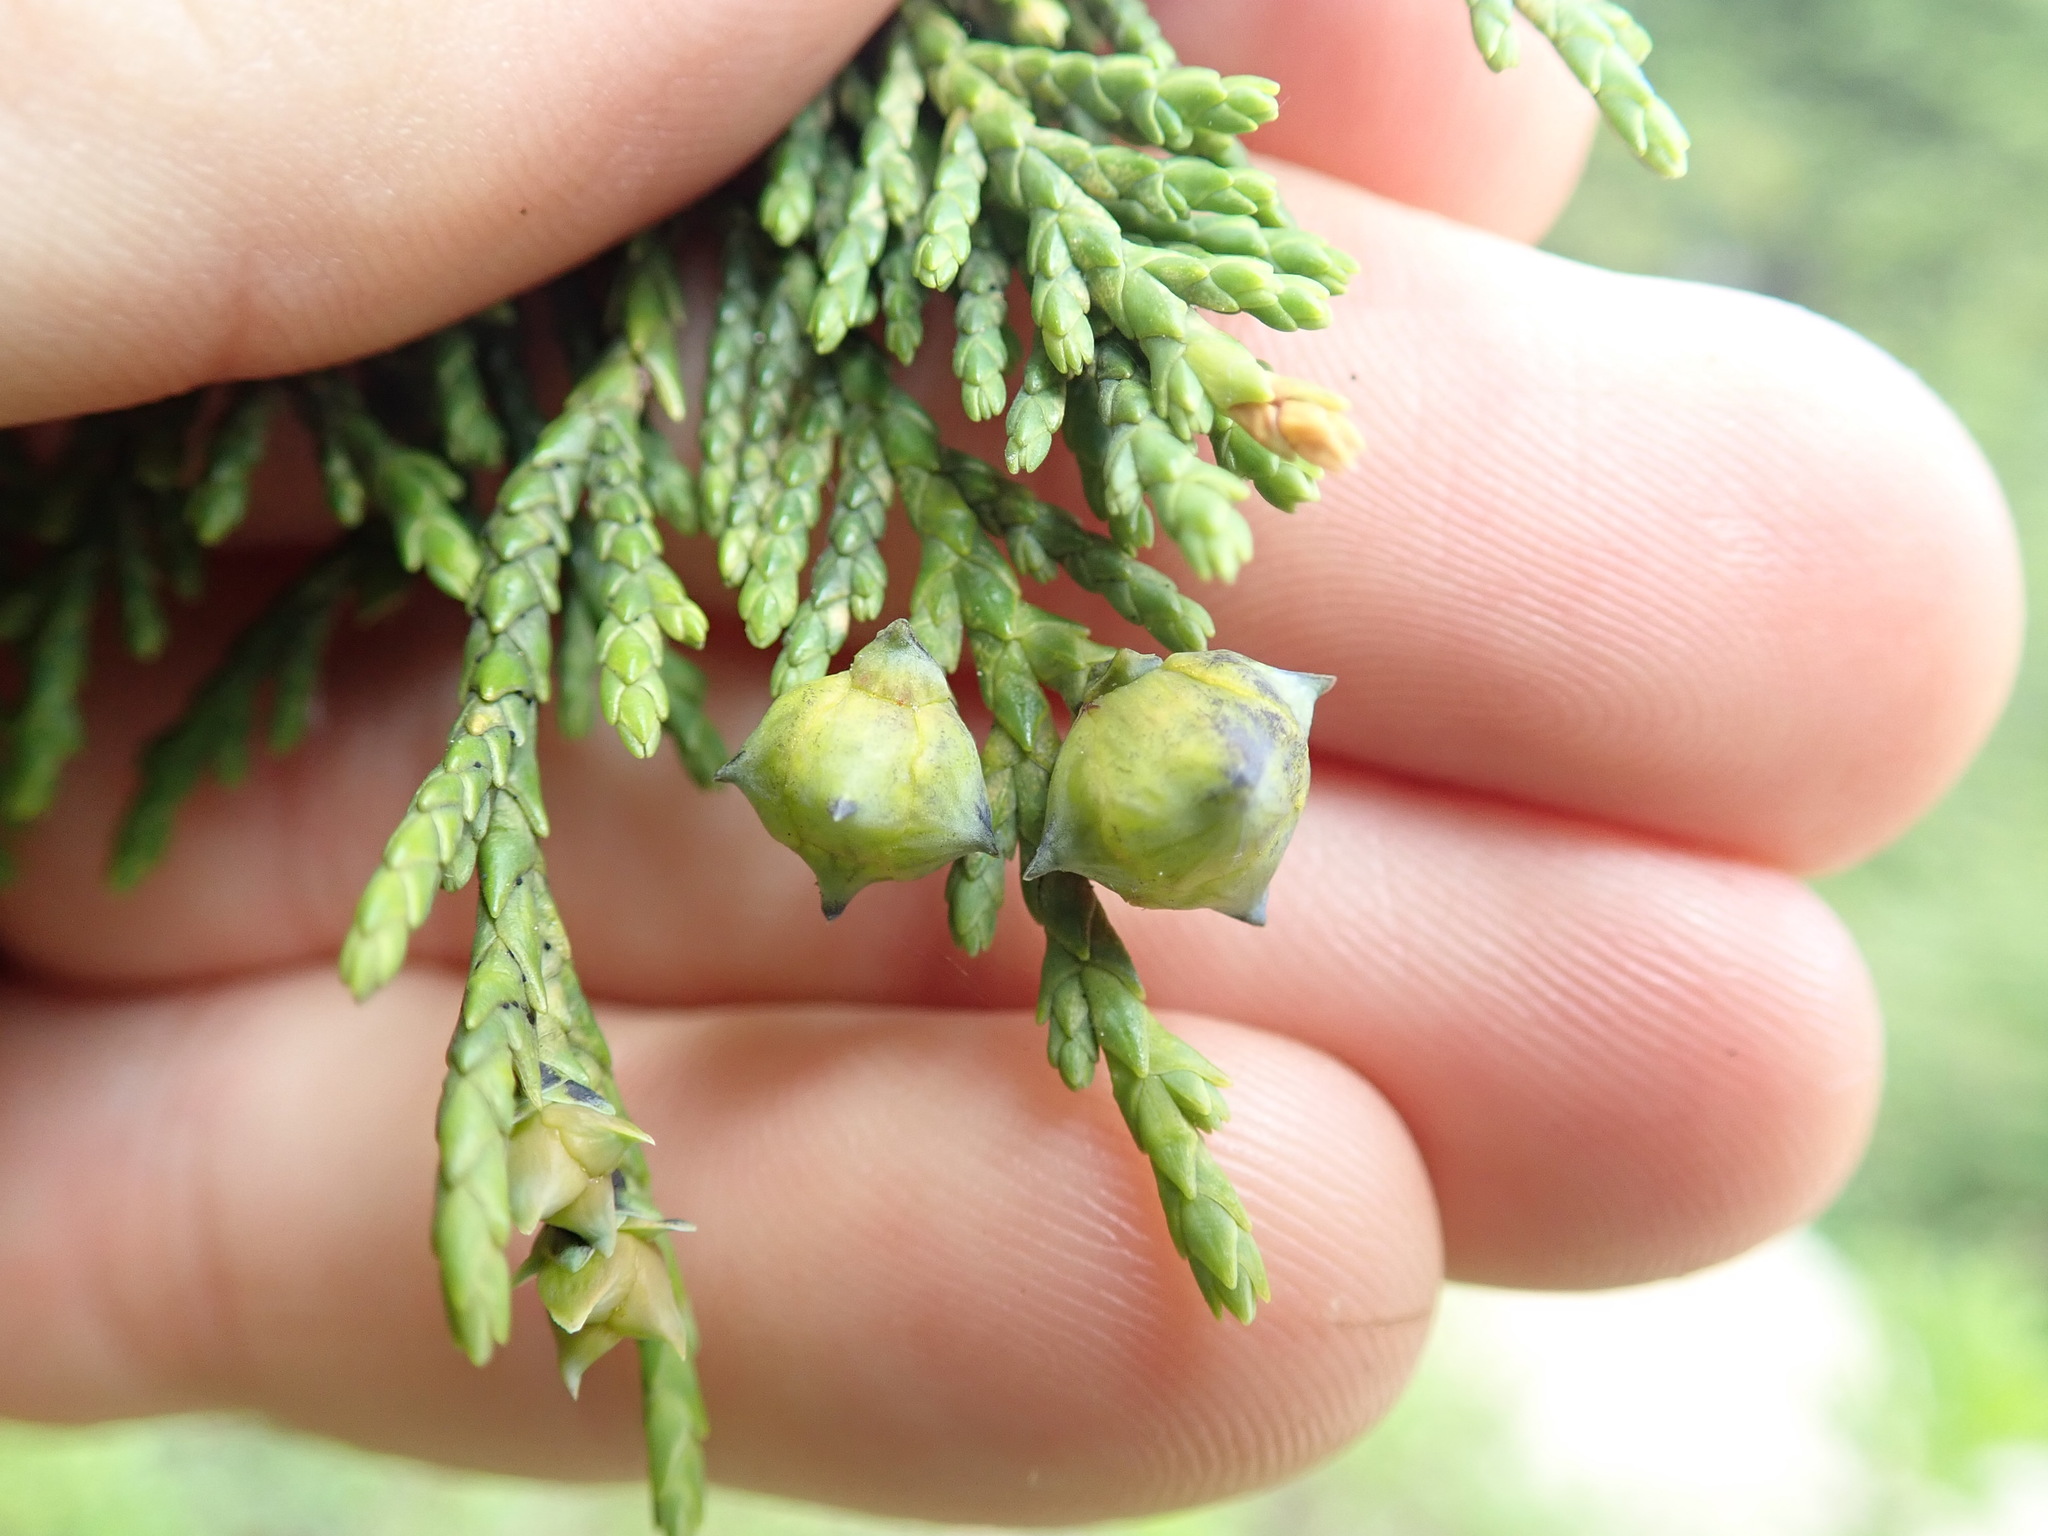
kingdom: Plantae
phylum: Tracheophyta
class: Pinopsida
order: Pinales
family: Cupressaceae
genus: Xanthocyparis
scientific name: Xanthocyparis nootkatensis
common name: Nootka cypress
